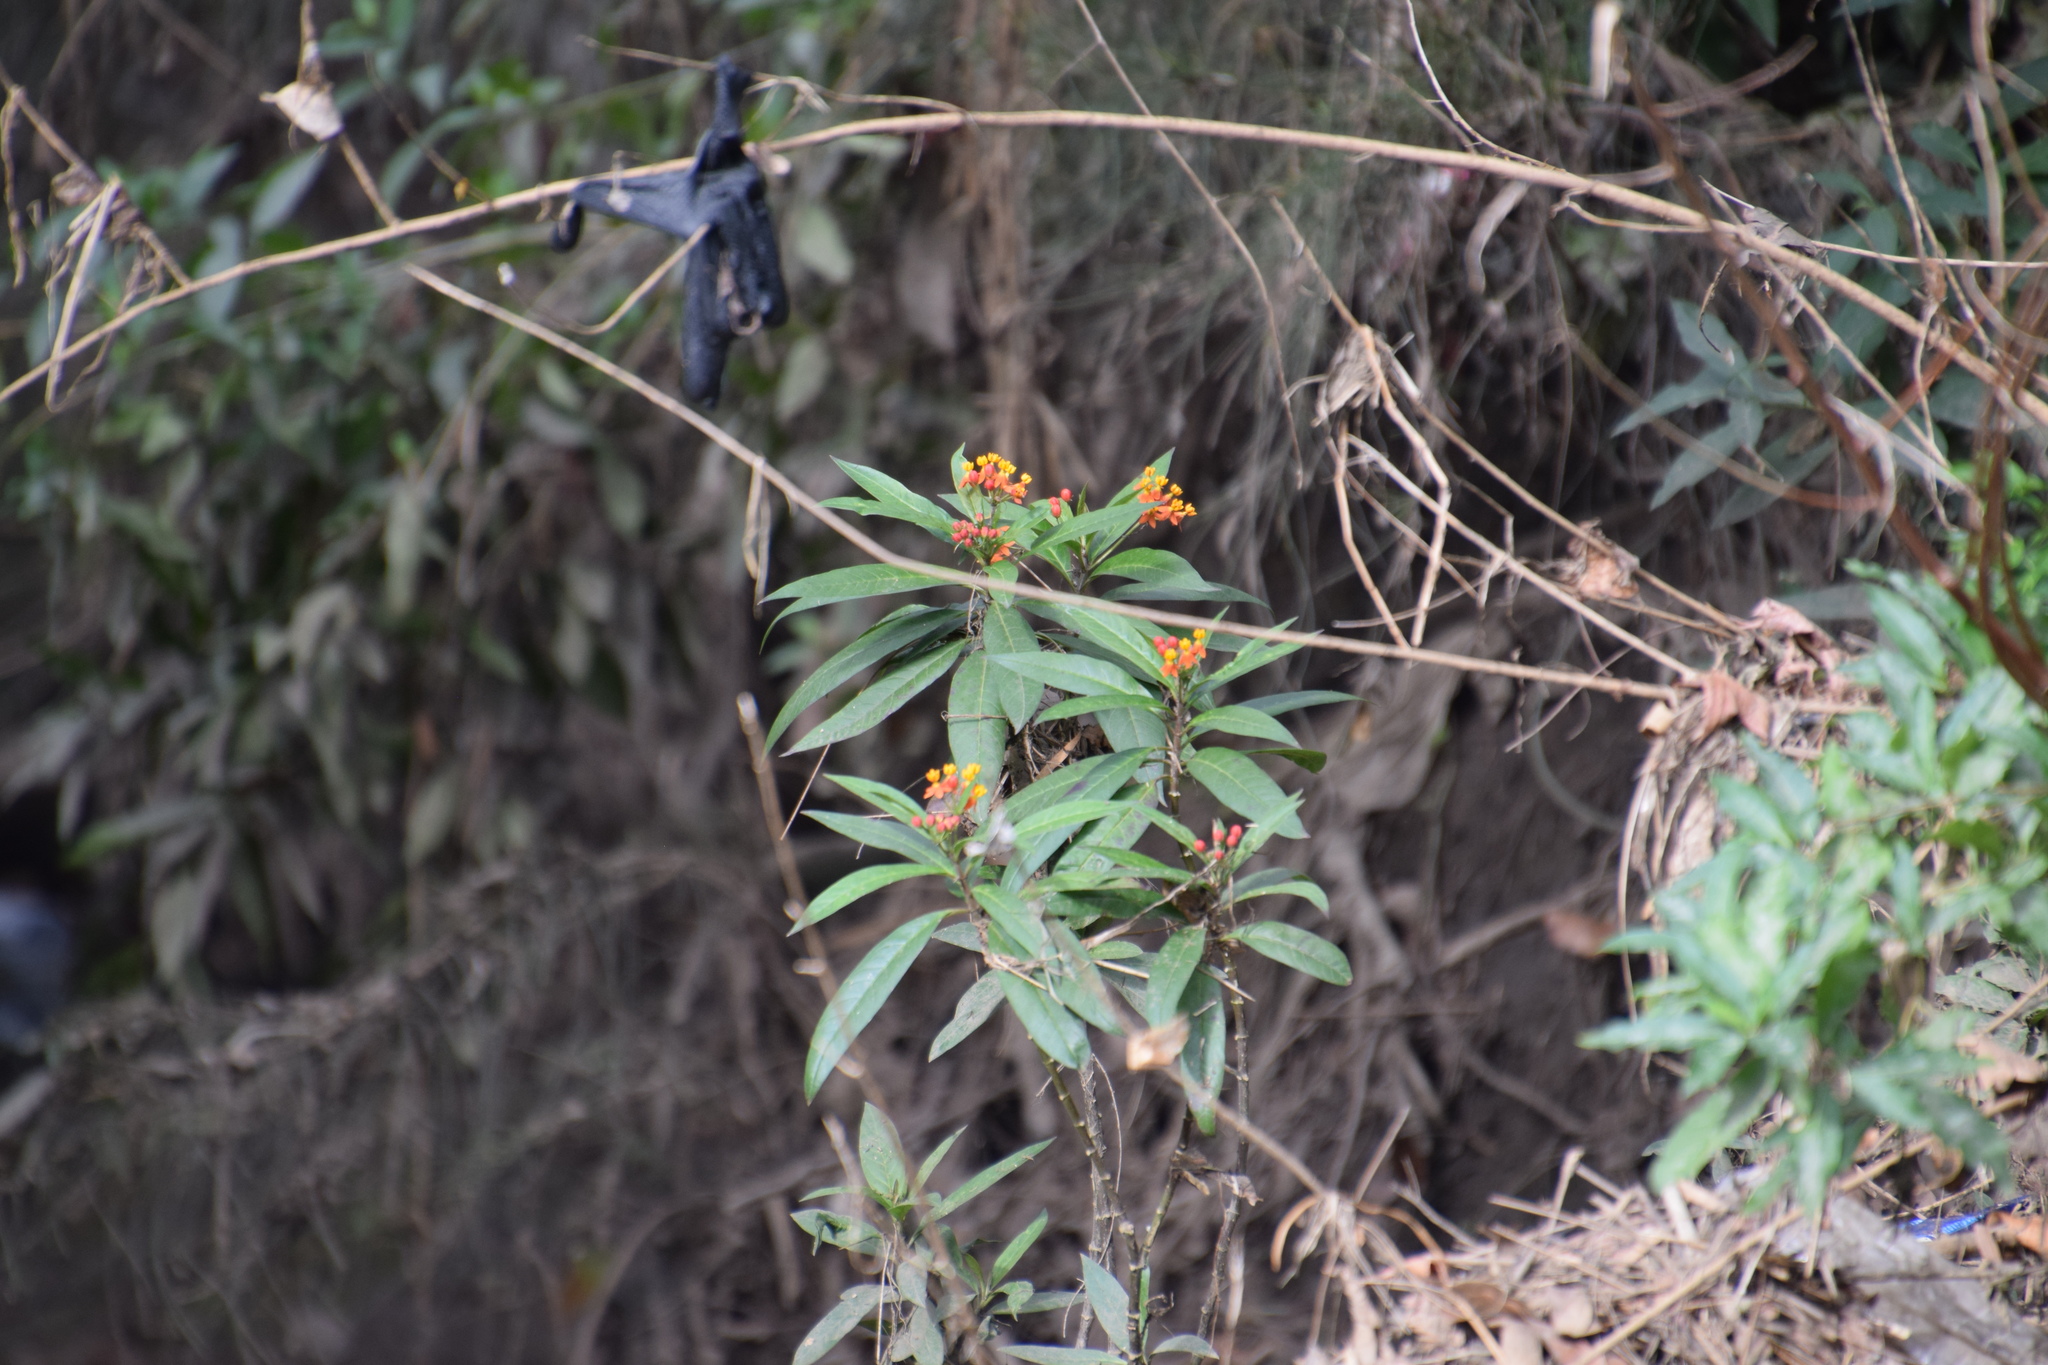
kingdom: Plantae
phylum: Tracheophyta
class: Magnoliopsida
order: Gentianales
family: Apocynaceae
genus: Asclepias
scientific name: Asclepias curassavica
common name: Bloodflower
